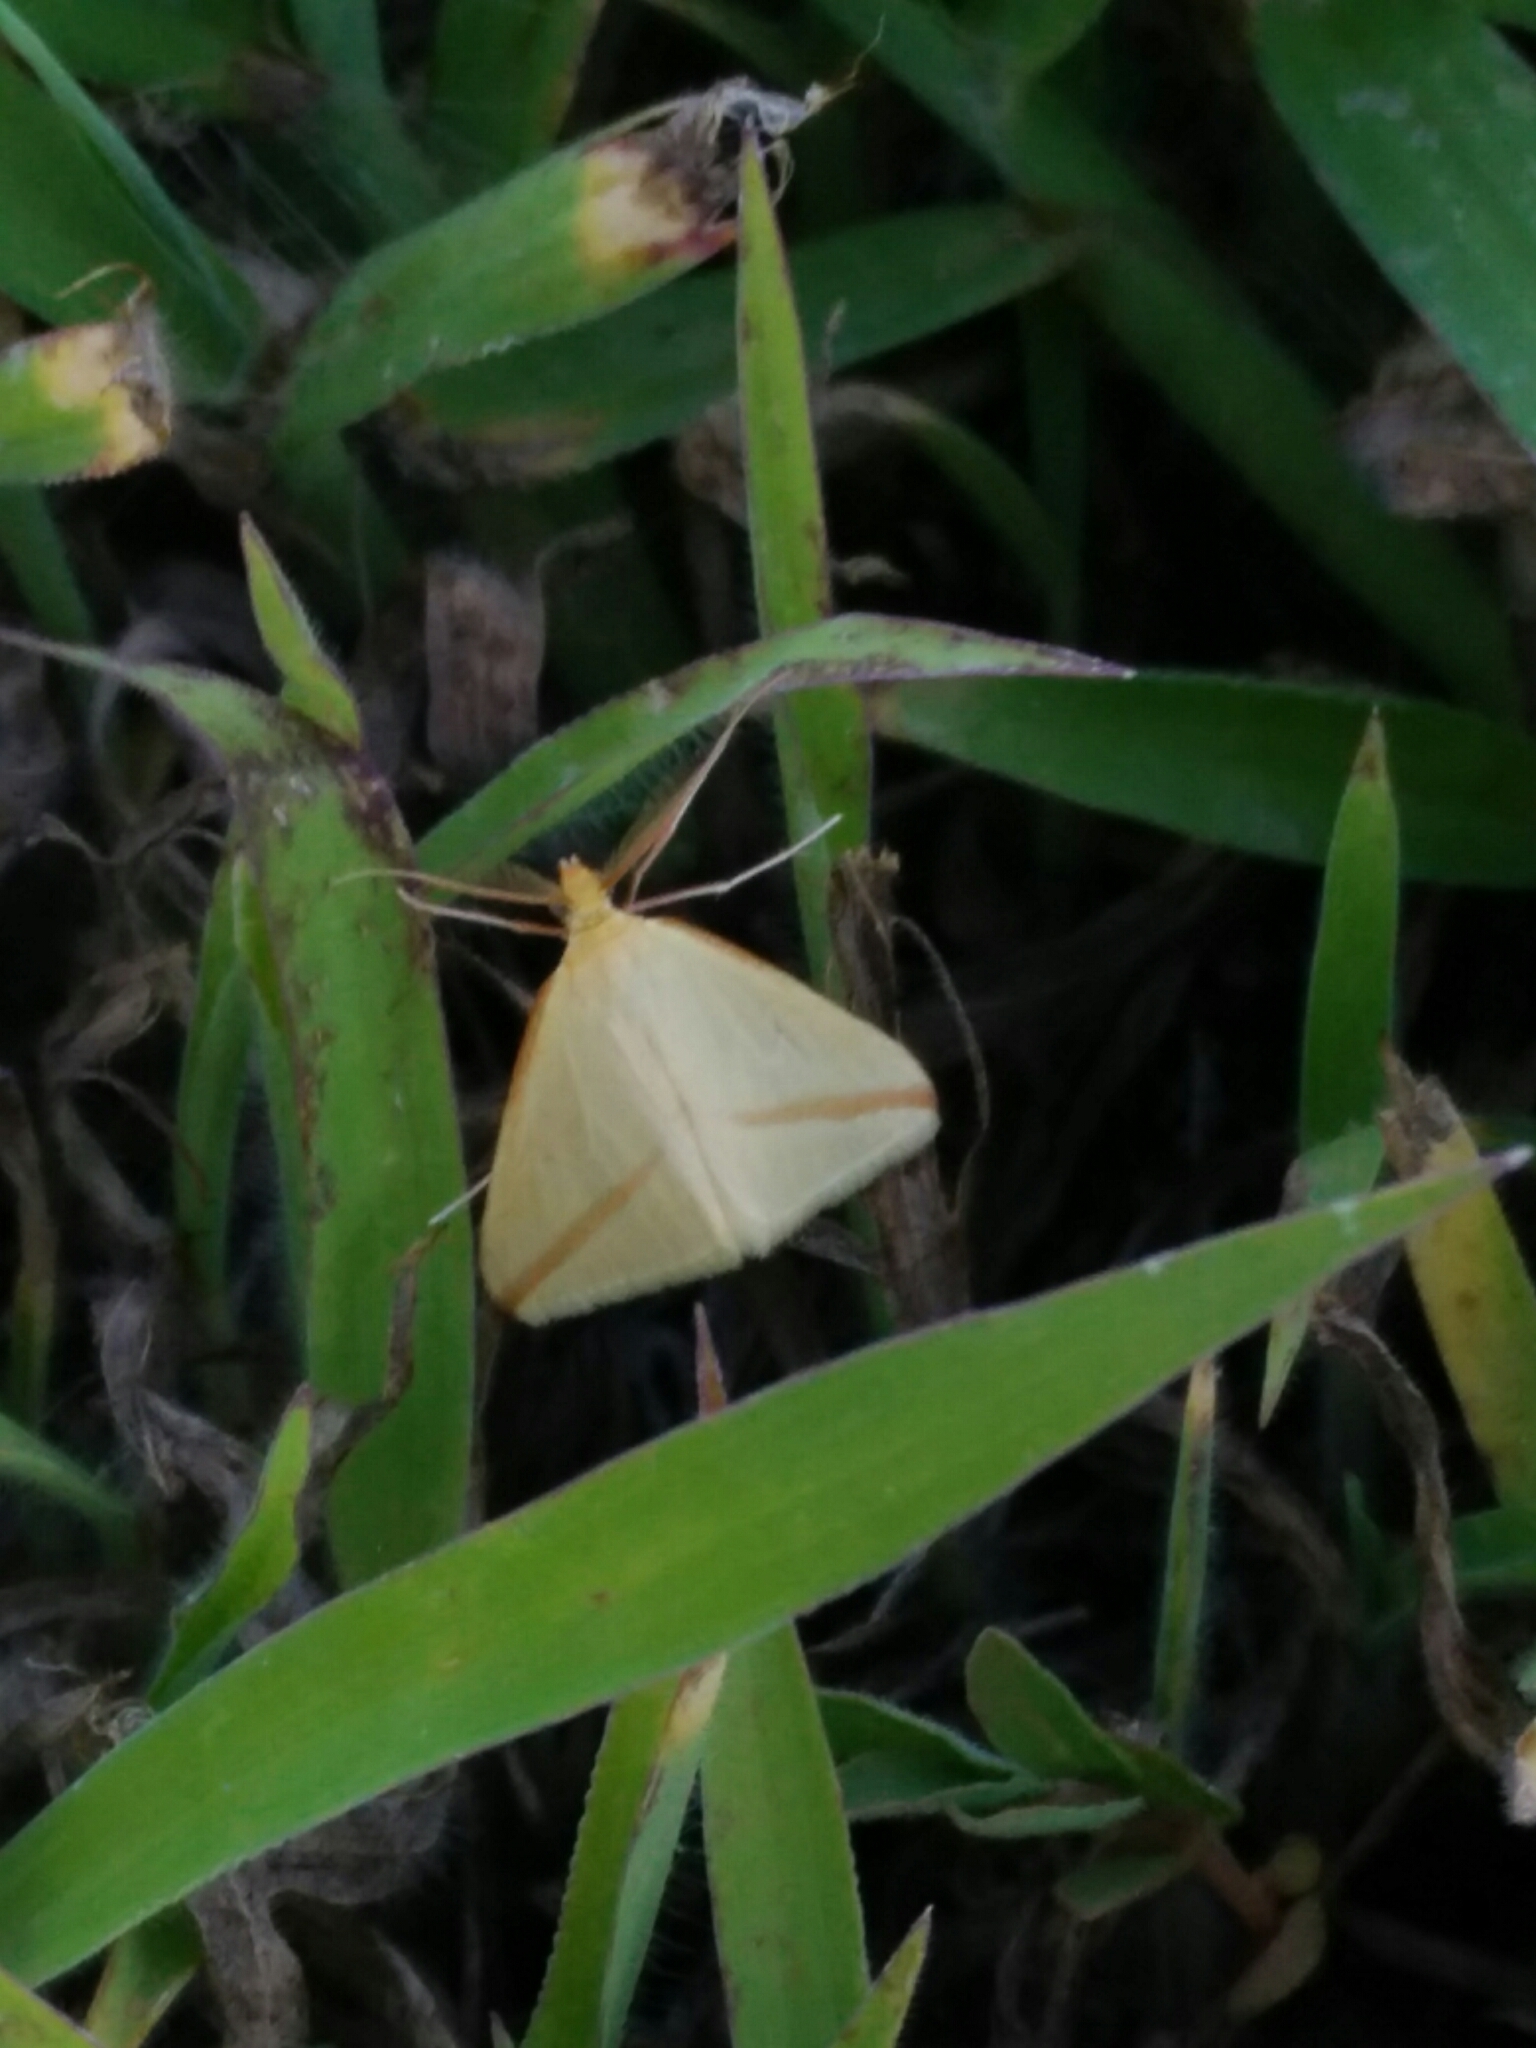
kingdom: Animalia
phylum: Arthropoda
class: Insecta
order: Lepidoptera
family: Geometridae
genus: Rhodometra
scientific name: Rhodometra sacraria
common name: Vestal
